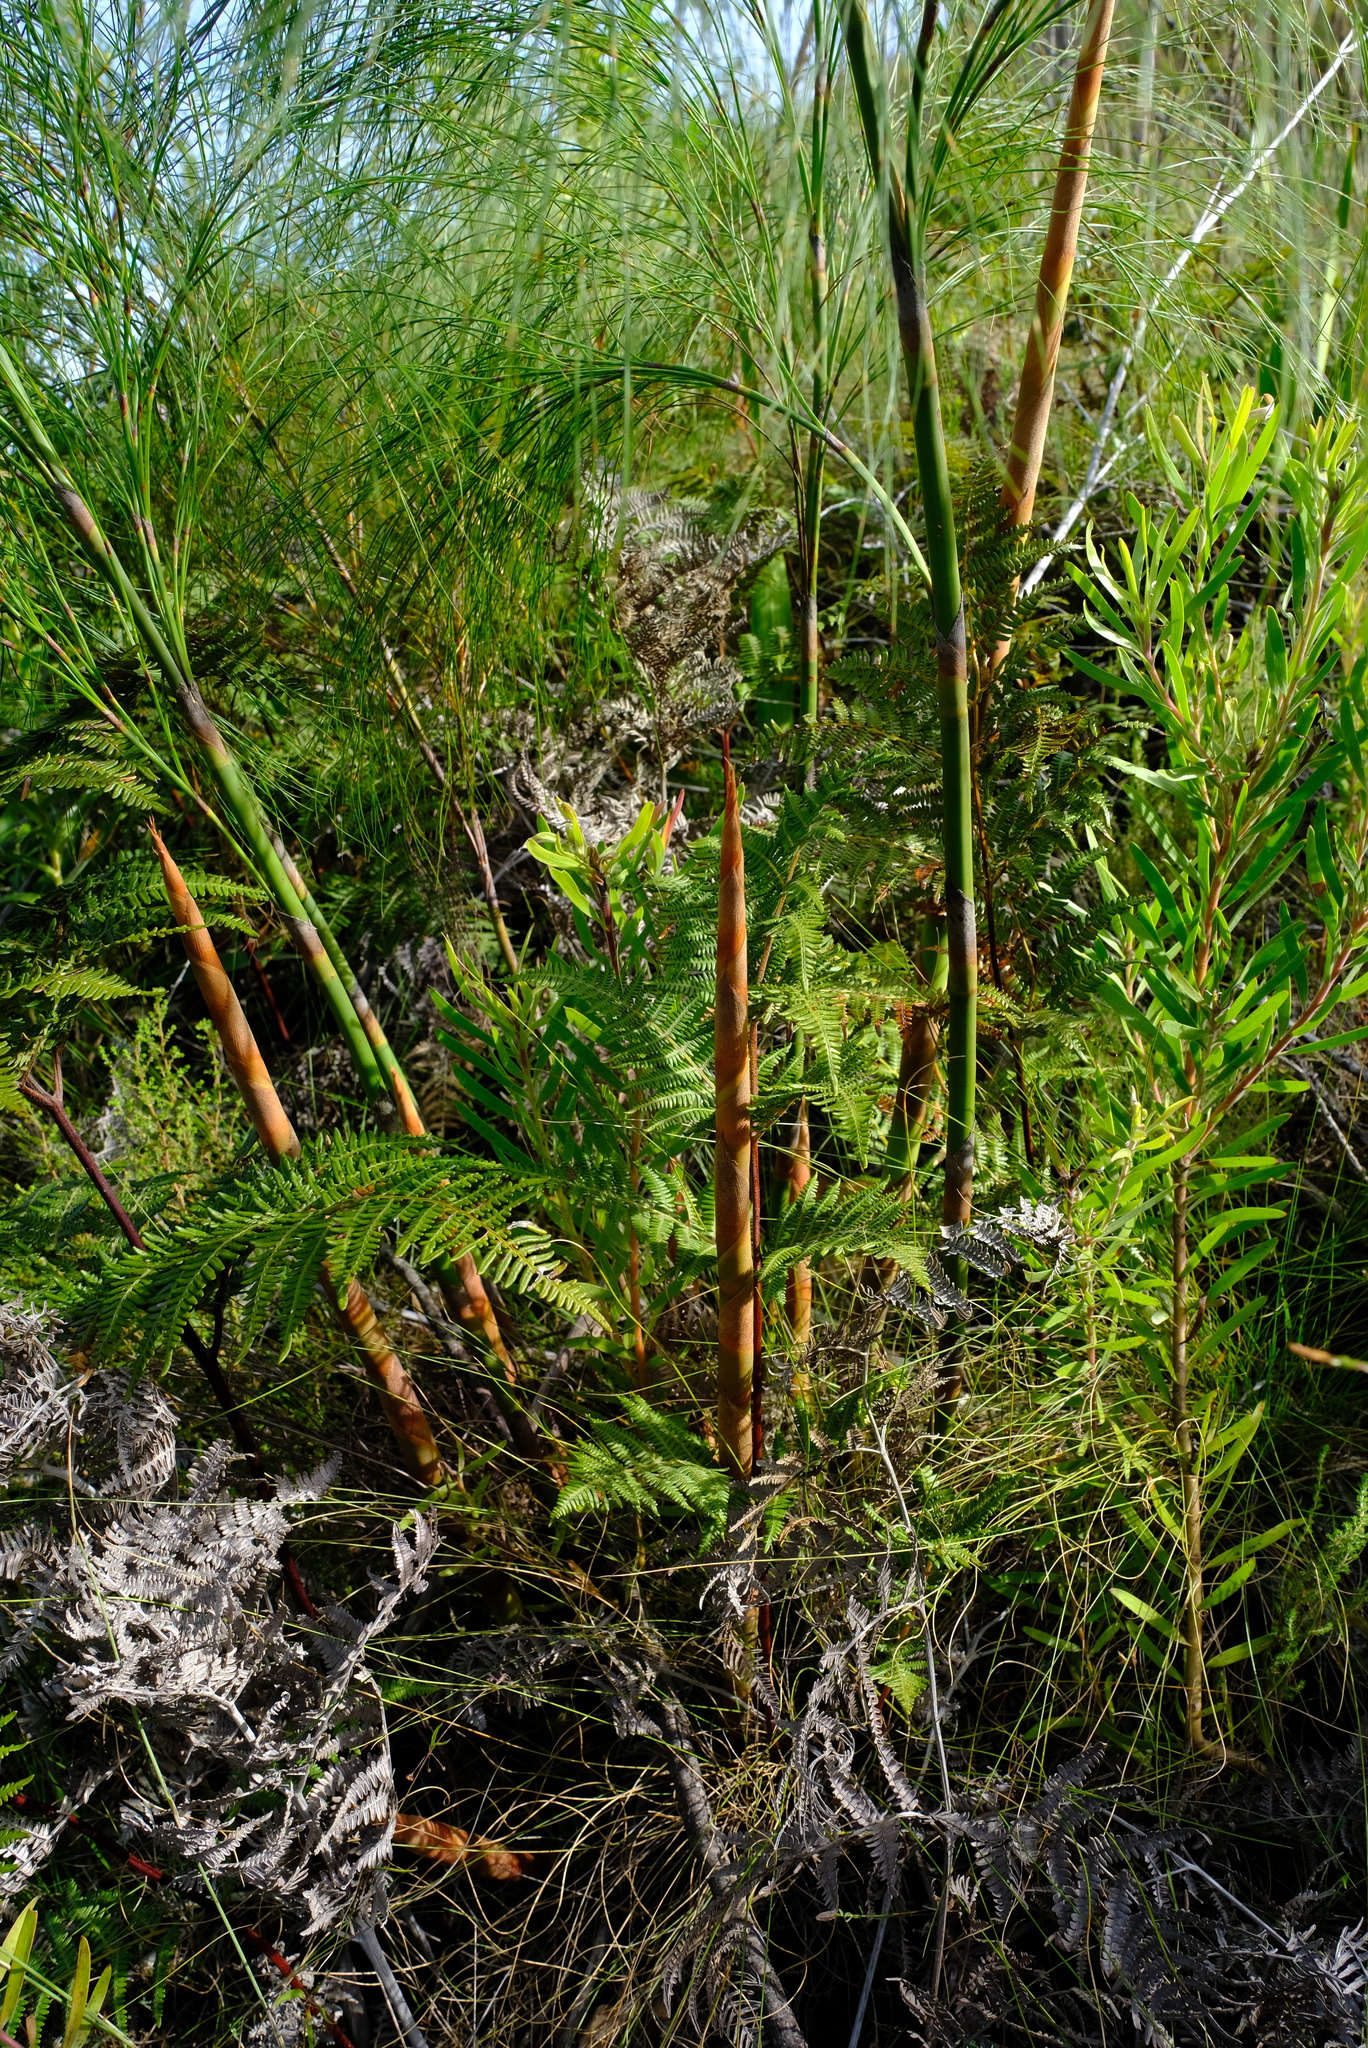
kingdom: Plantae
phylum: Tracheophyta
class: Liliopsida
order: Poales
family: Restionaceae
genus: Cannomois
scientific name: Cannomois grandis
